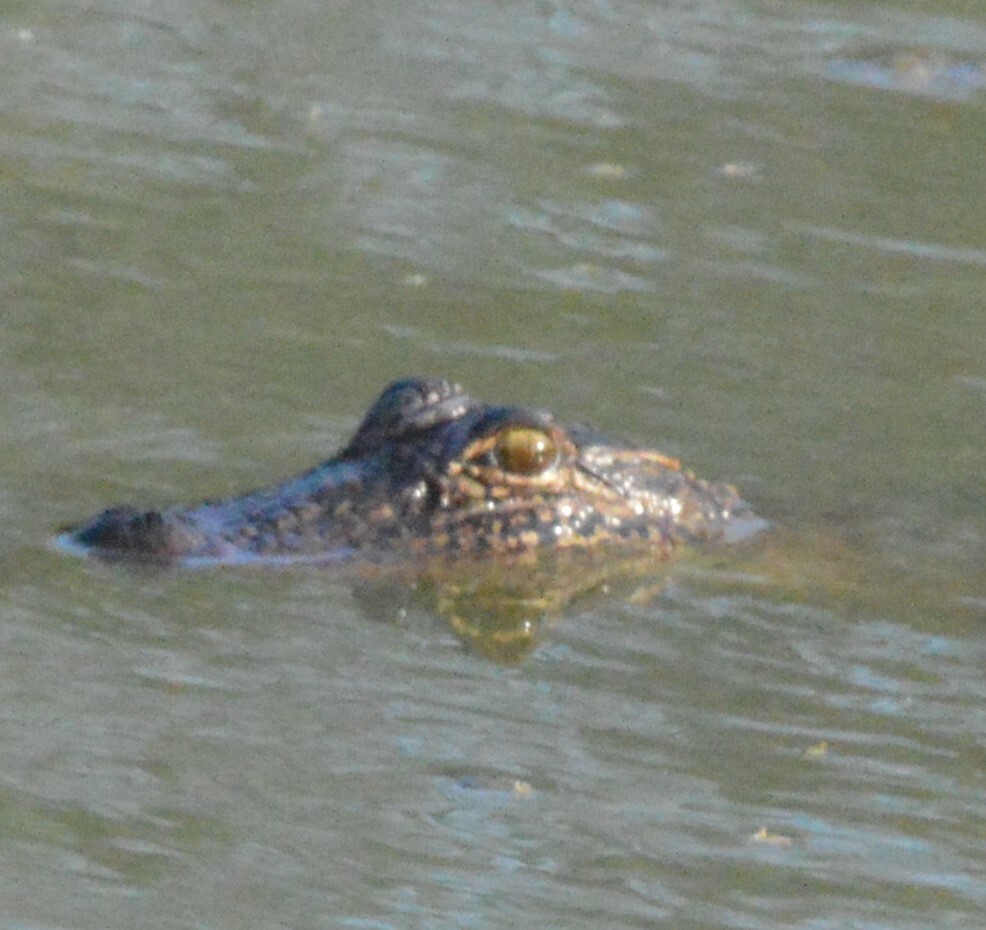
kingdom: Animalia
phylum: Chordata
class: Crocodylia
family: Alligatoridae
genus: Alligator
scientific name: Alligator mississippiensis
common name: American alligator
